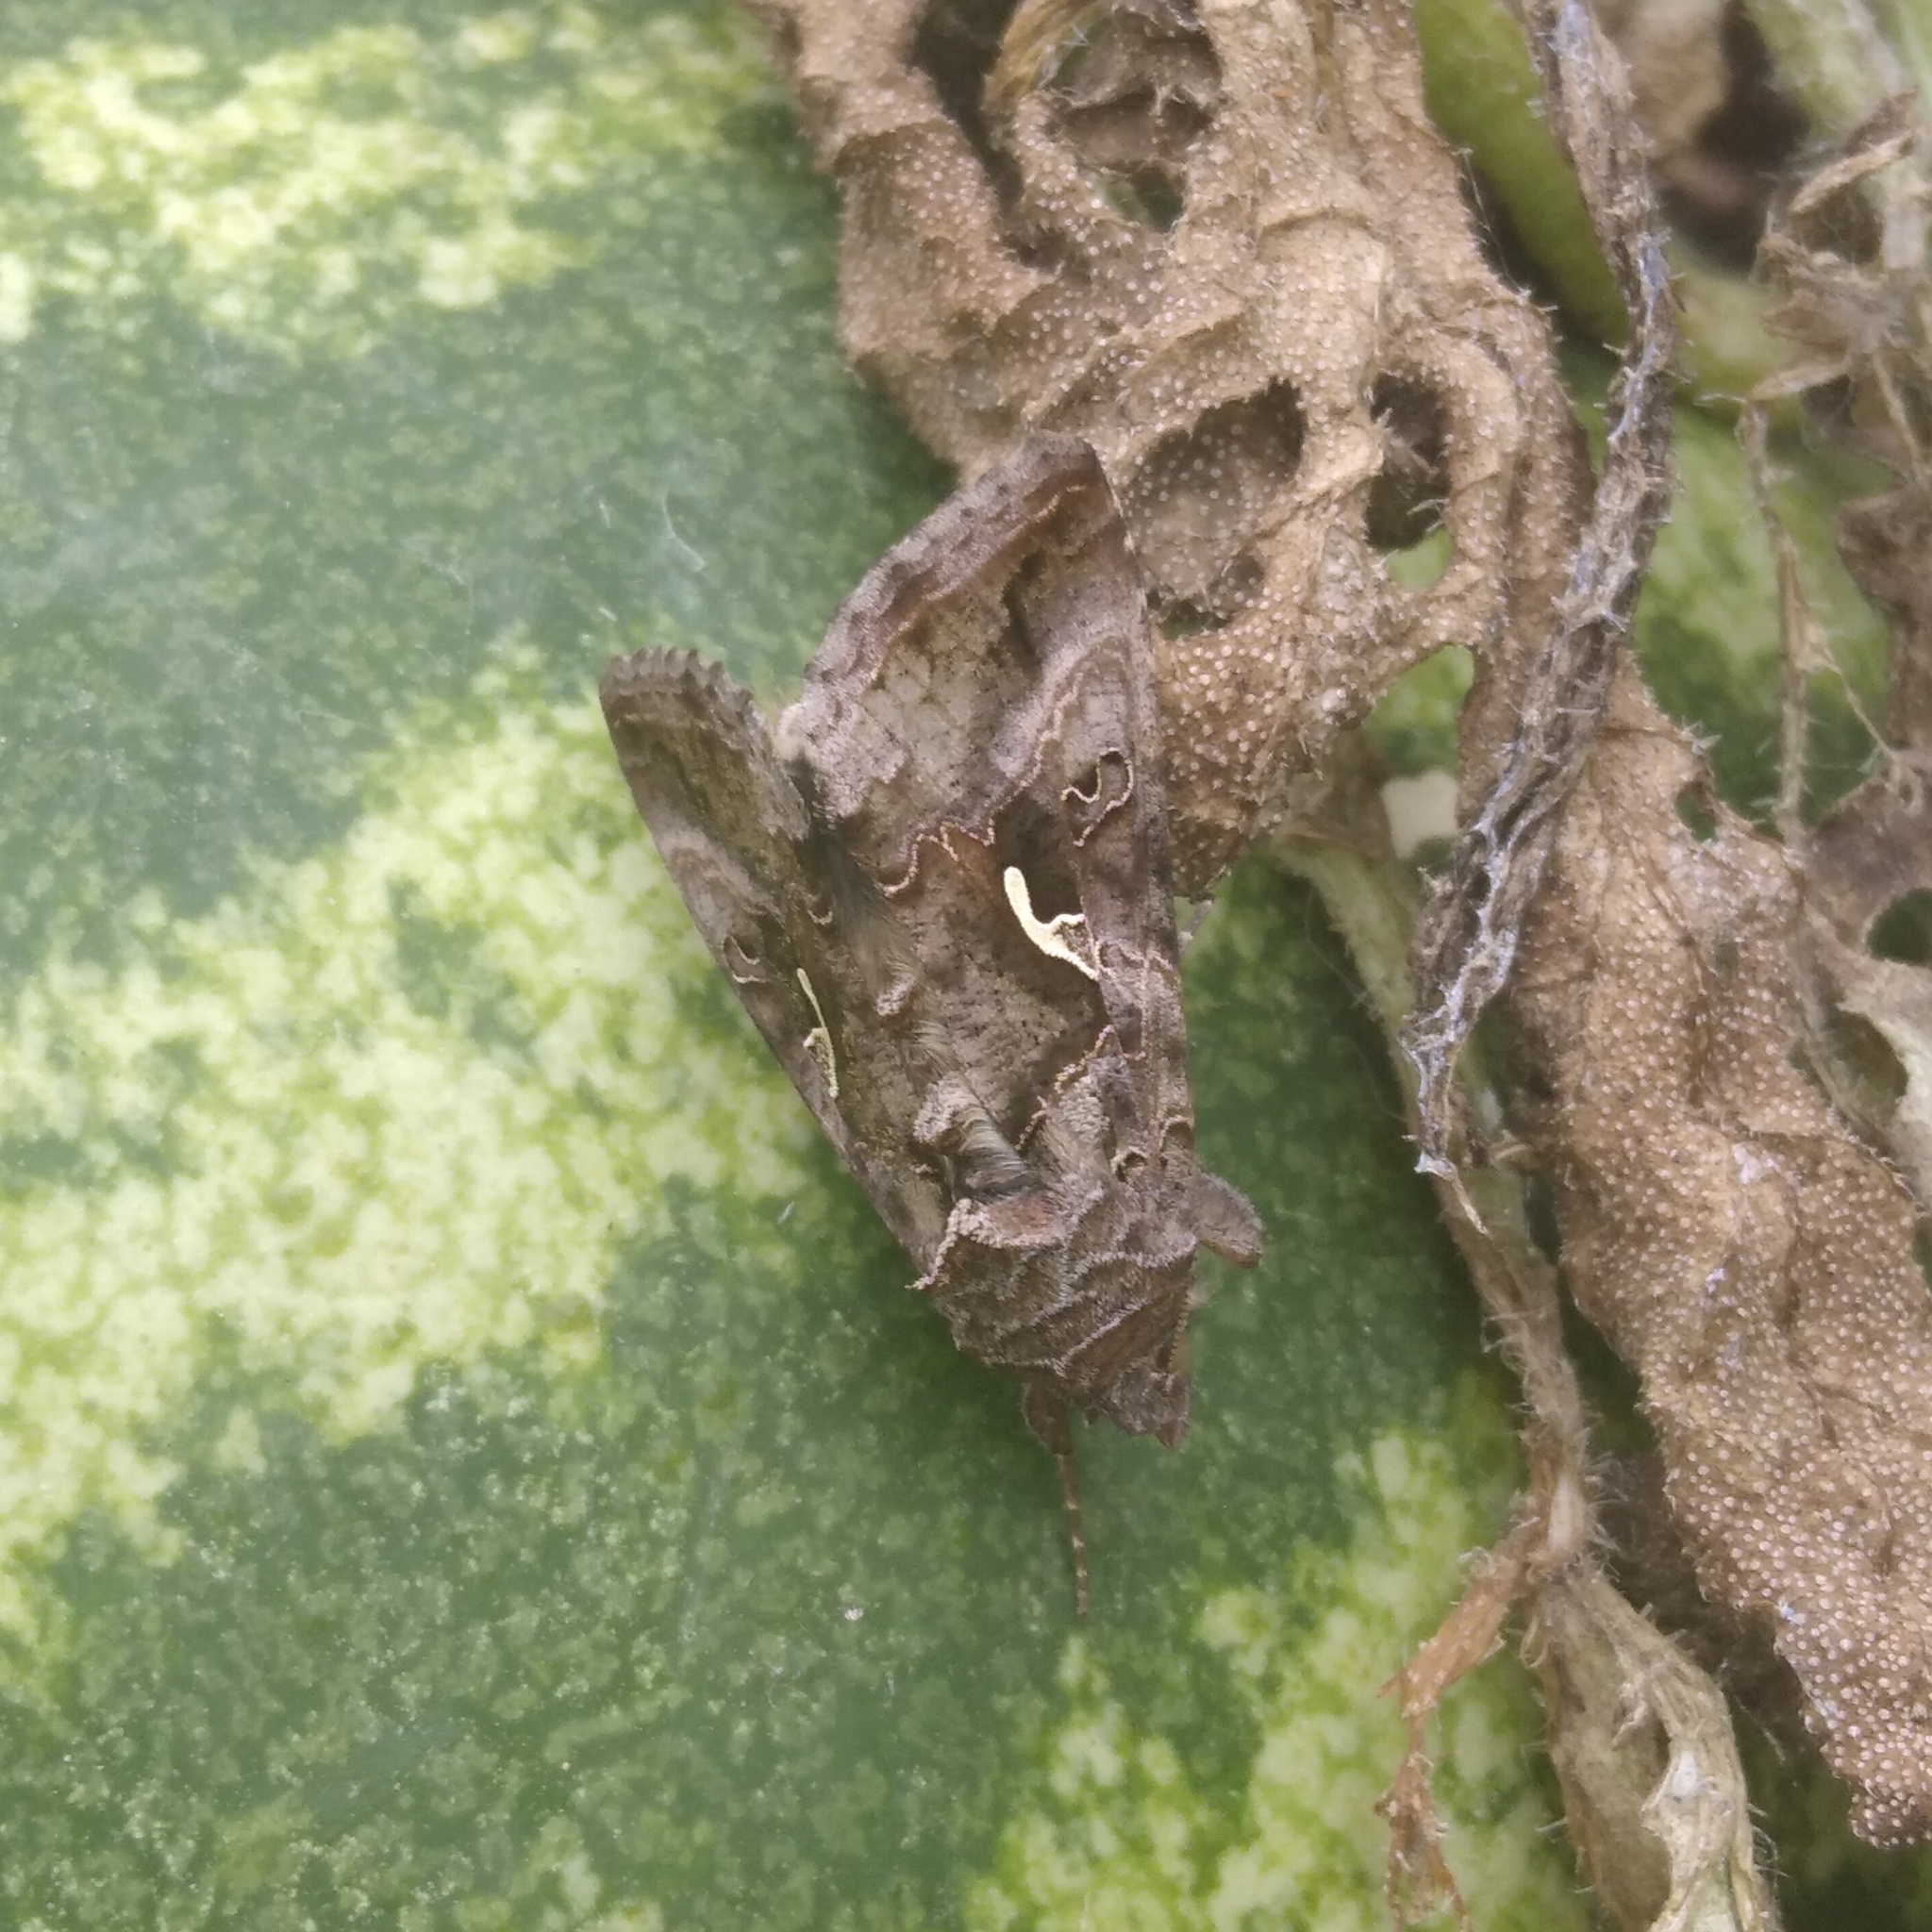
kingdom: Animalia
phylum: Arthropoda
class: Insecta
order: Lepidoptera
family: Noctuidae
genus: Autographa
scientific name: Autographa gamma
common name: Silver y
